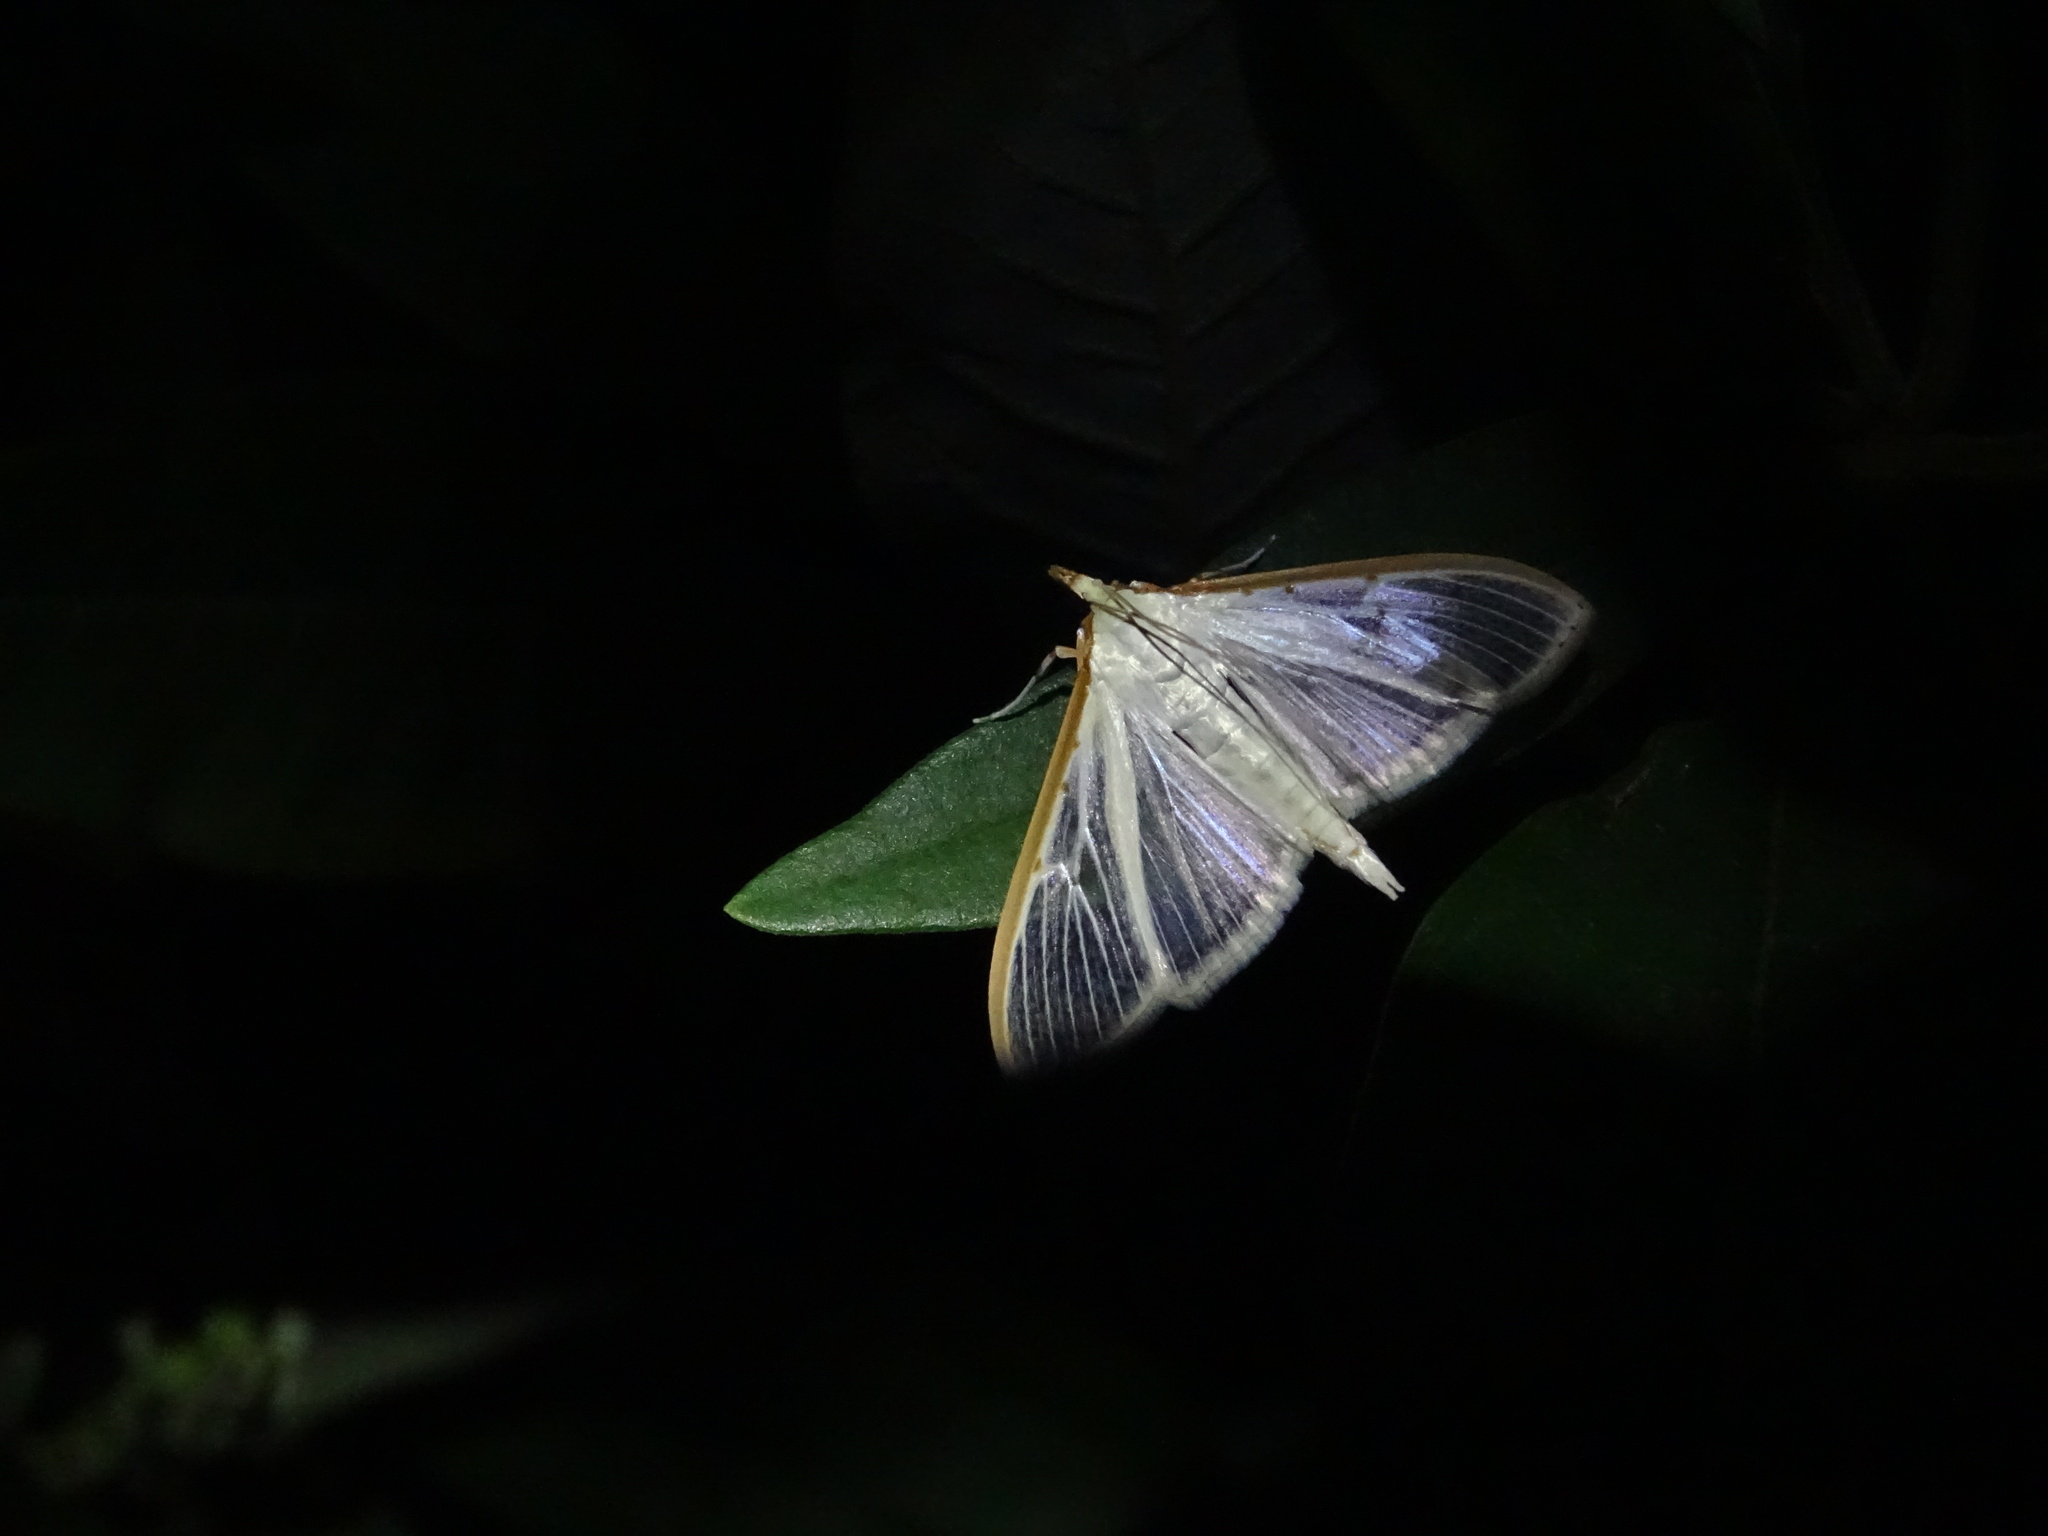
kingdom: Animalia
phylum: Arthropoda
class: Insecta
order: Lepidoptera
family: Crambidae
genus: Palpita
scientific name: Palpita quadristigmalis
